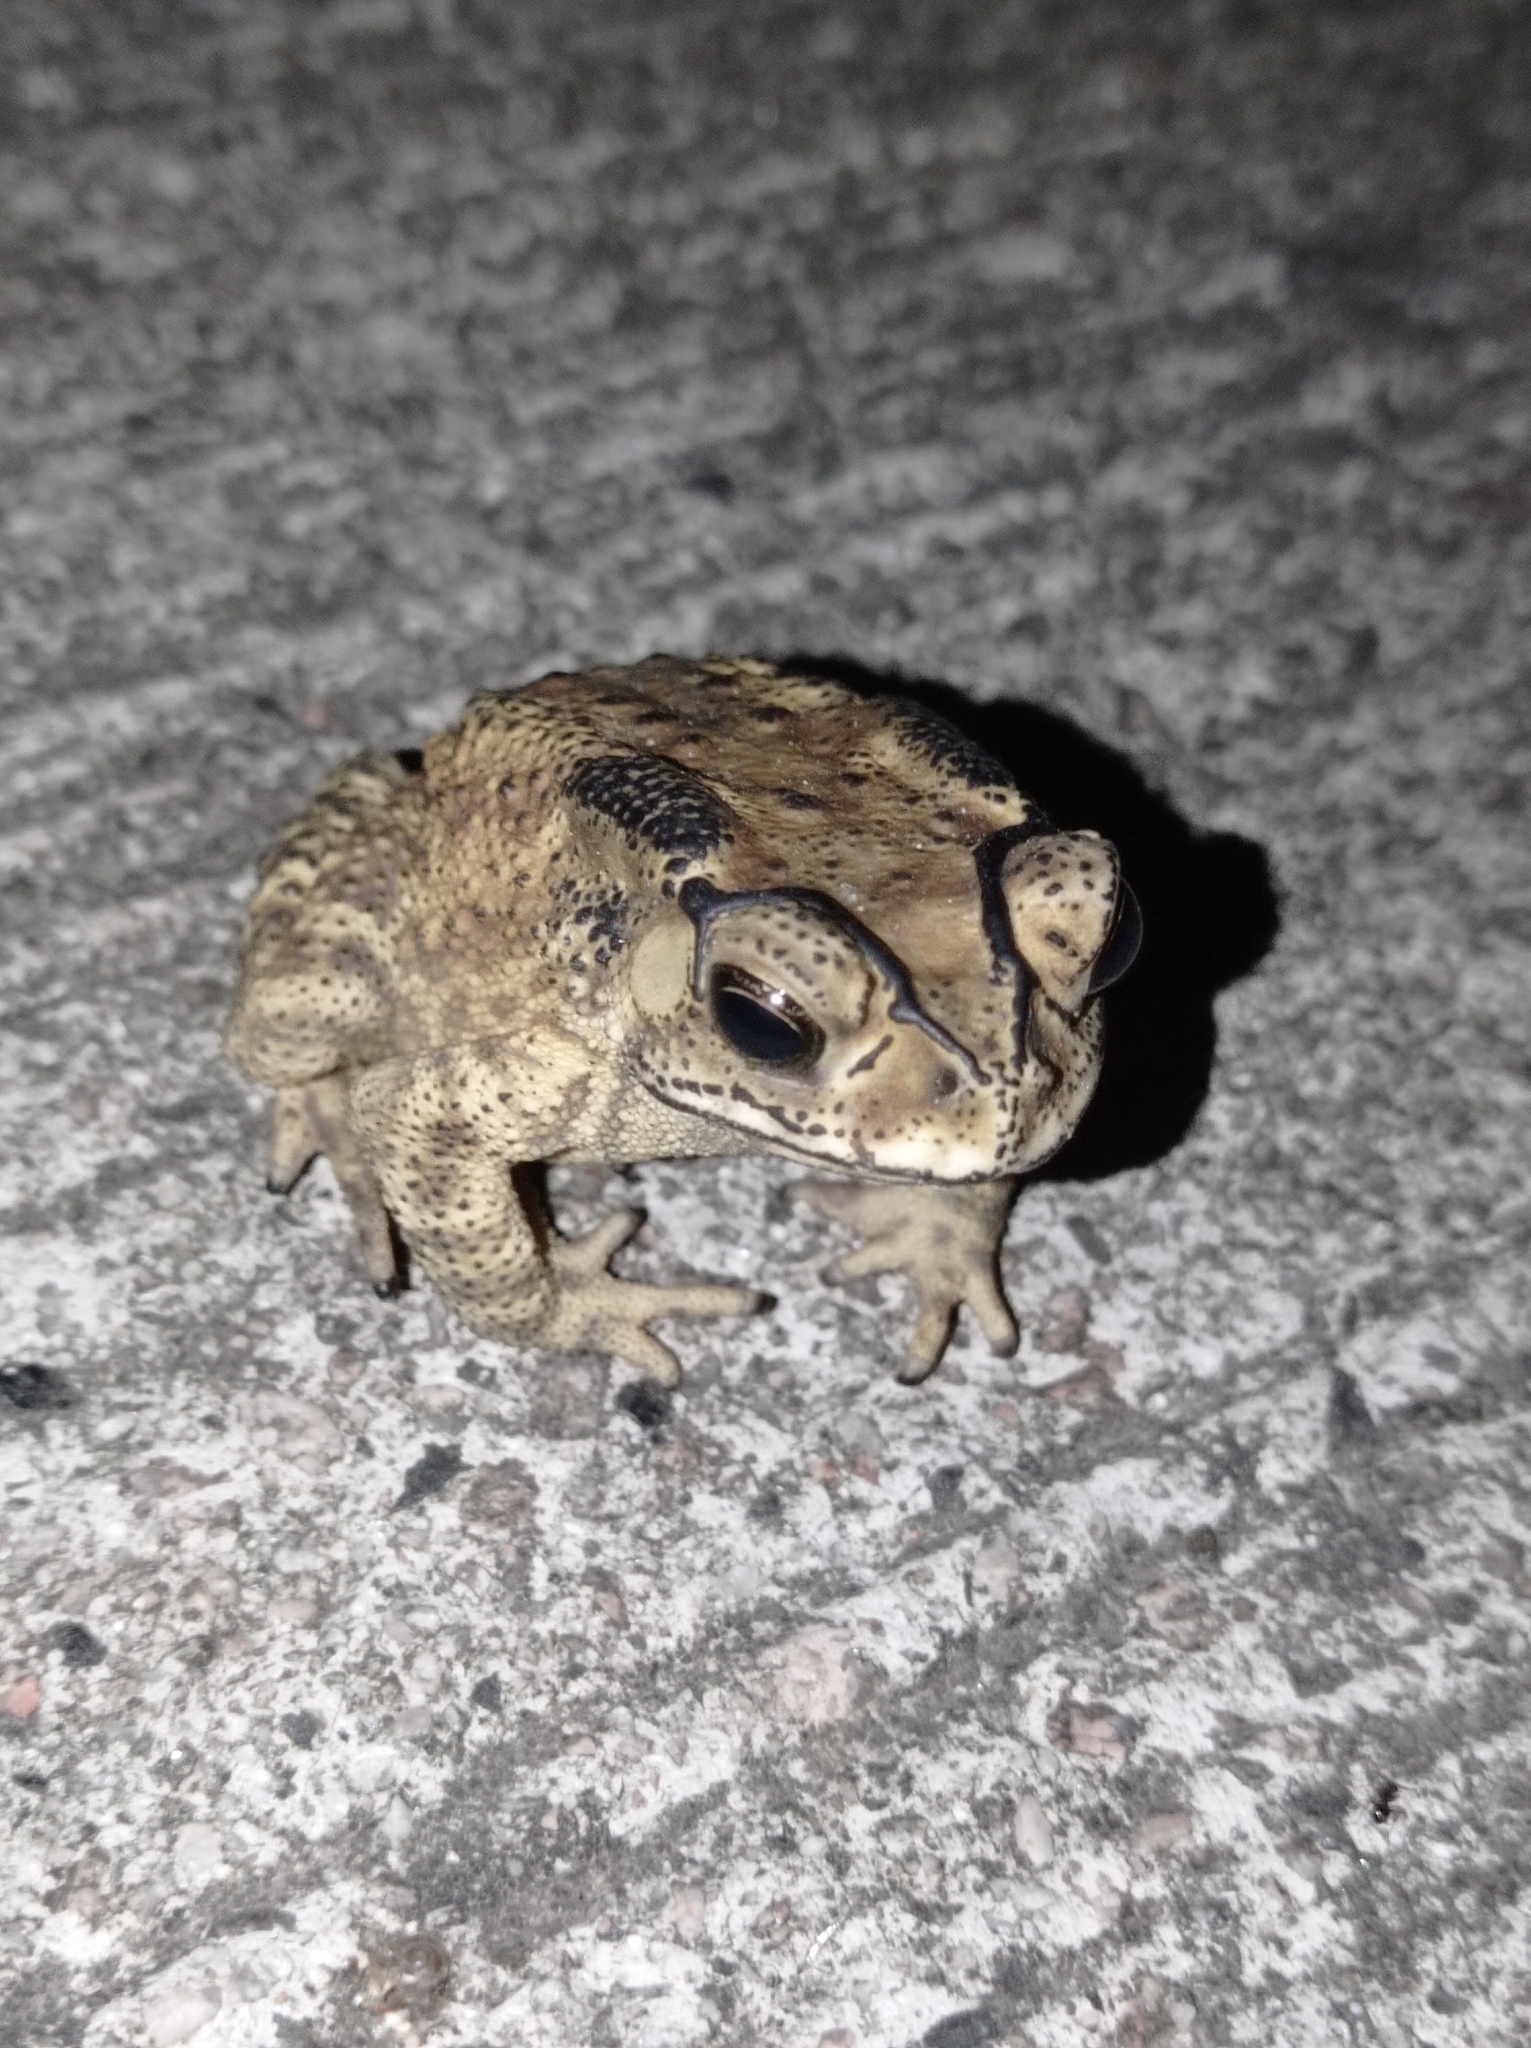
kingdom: Animalia
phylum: Chordata
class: Amphibia
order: Anura
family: Bufonidae
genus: Duttaphrynus
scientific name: Duttaphrynus melanostictus
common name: Common sunda toad
